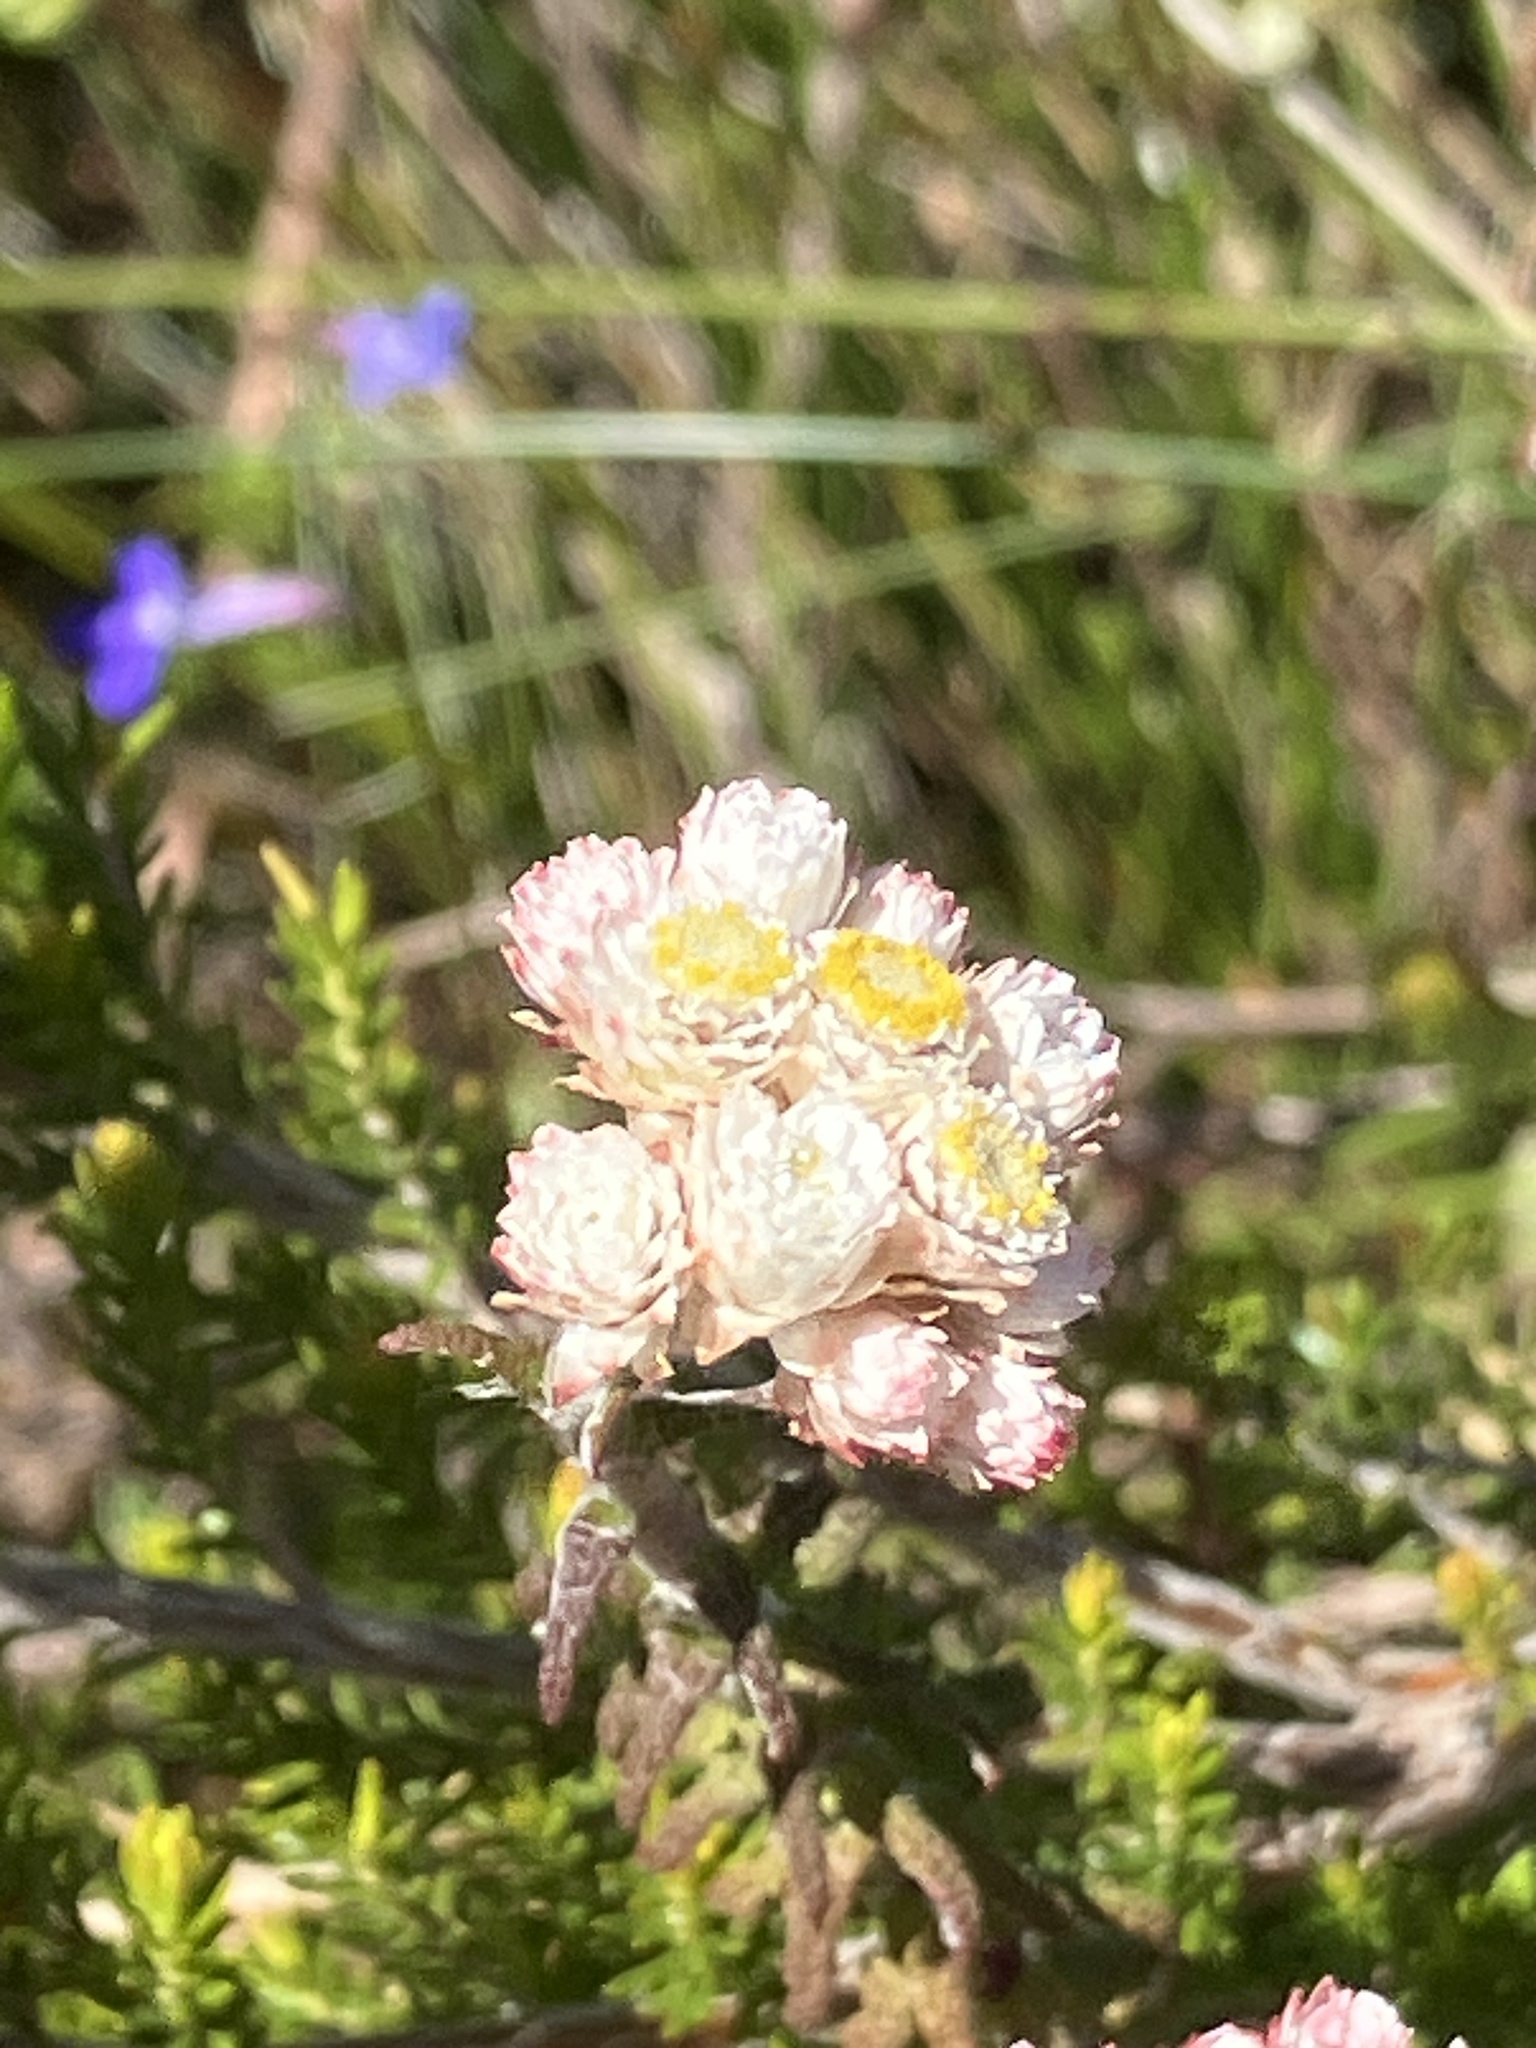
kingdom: Plantae
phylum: Tracheophyta
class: Magnoliopsida
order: Asterales
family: Asteraceae
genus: Helichrysum
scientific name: Helichrysum felinum
